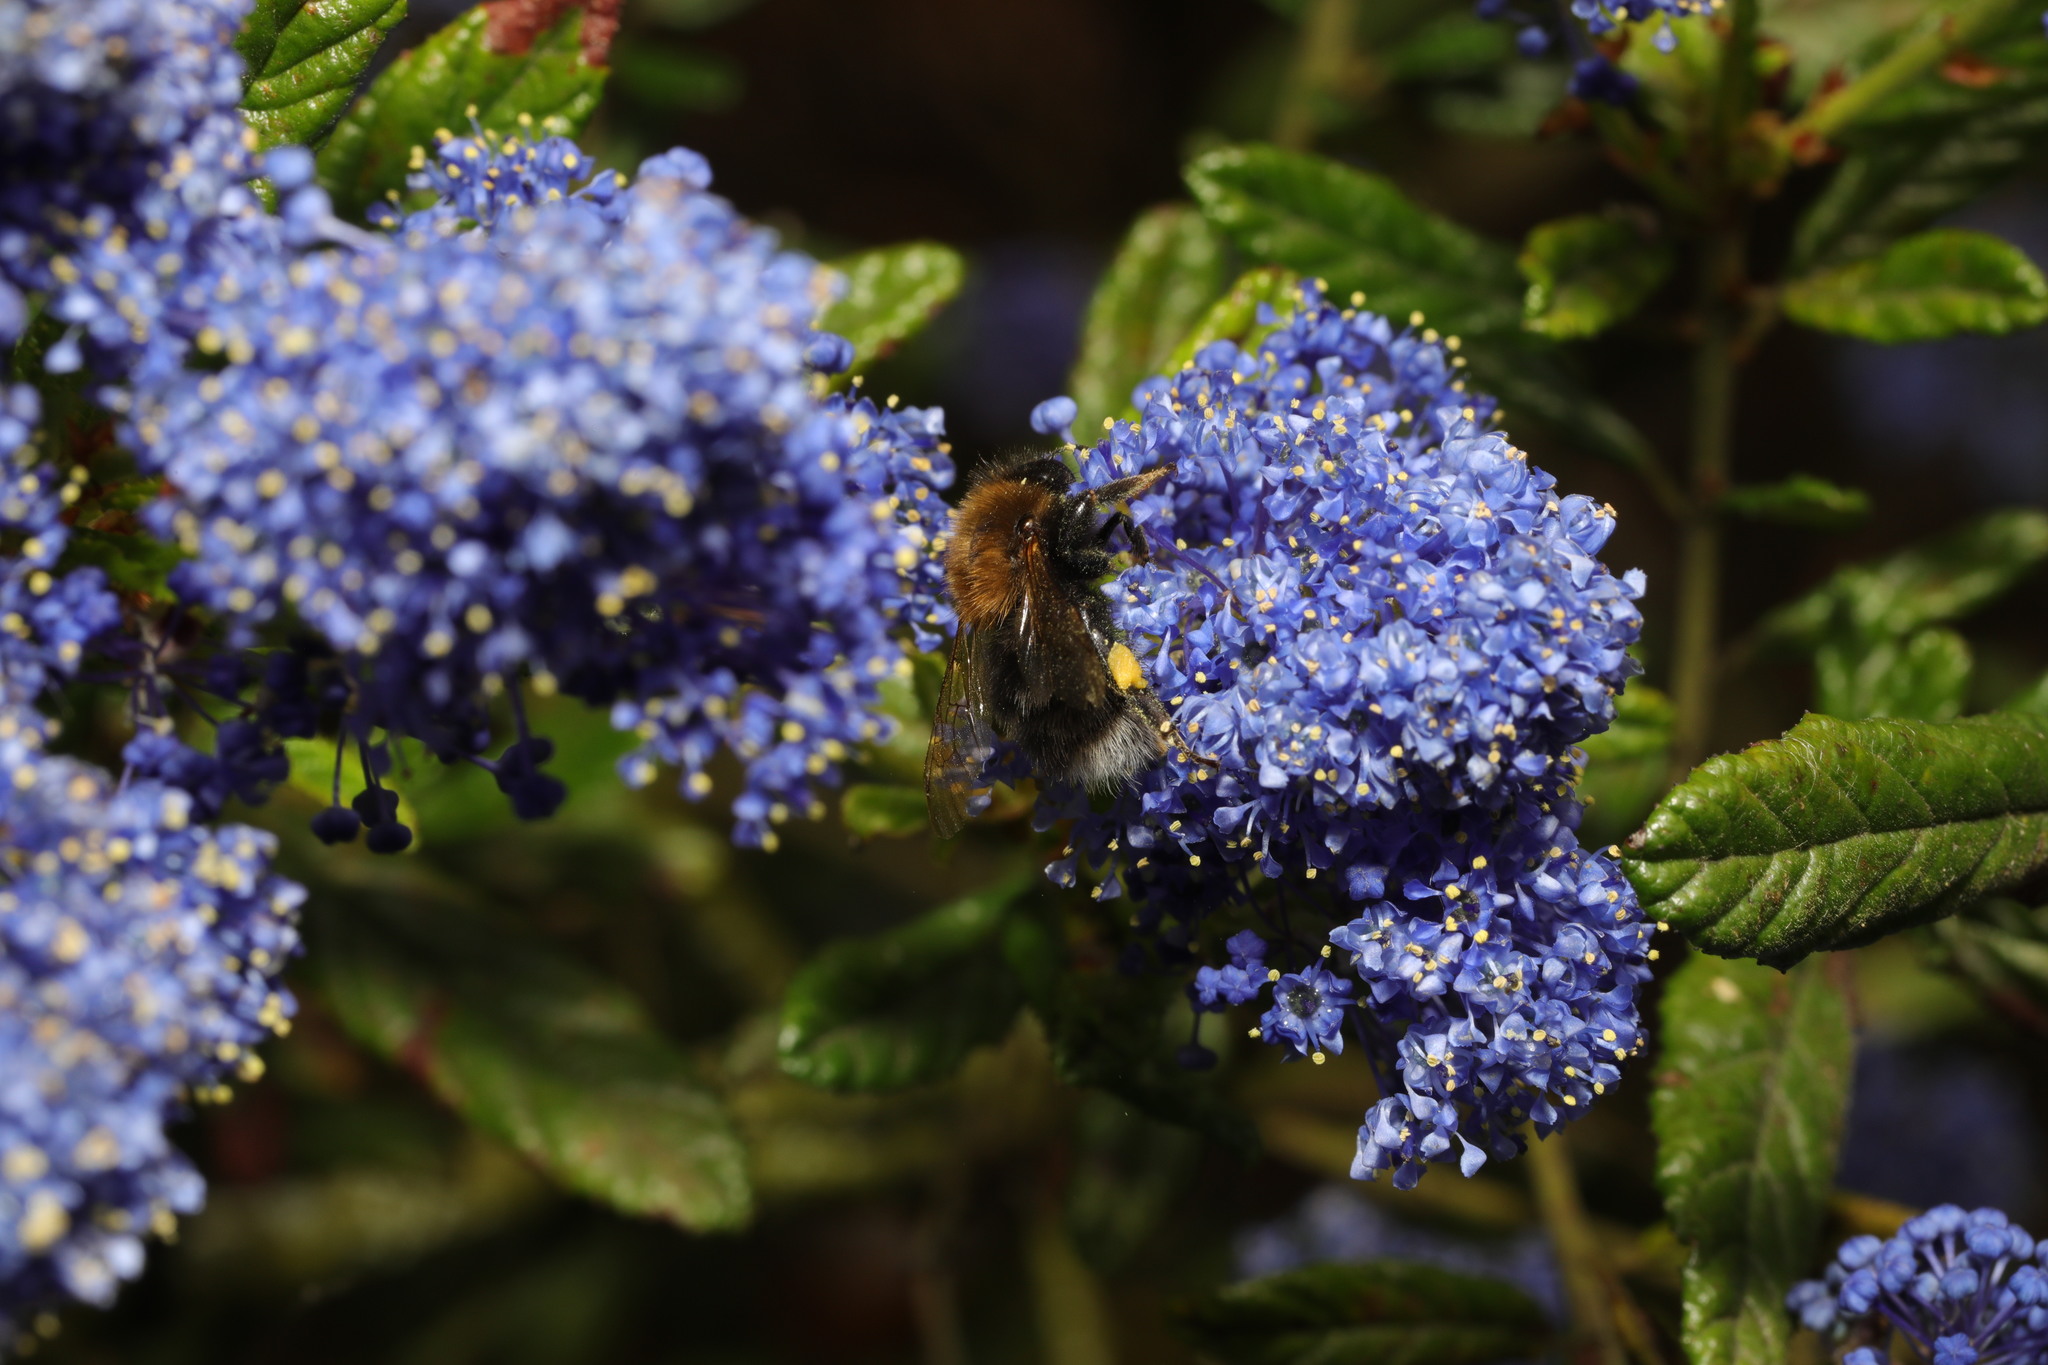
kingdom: Animalia
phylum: Arthropoda
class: Insecta
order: Hymenoptera
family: Apidae
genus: Bombus
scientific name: Bombus hypnorum
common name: New garden bumblebee
